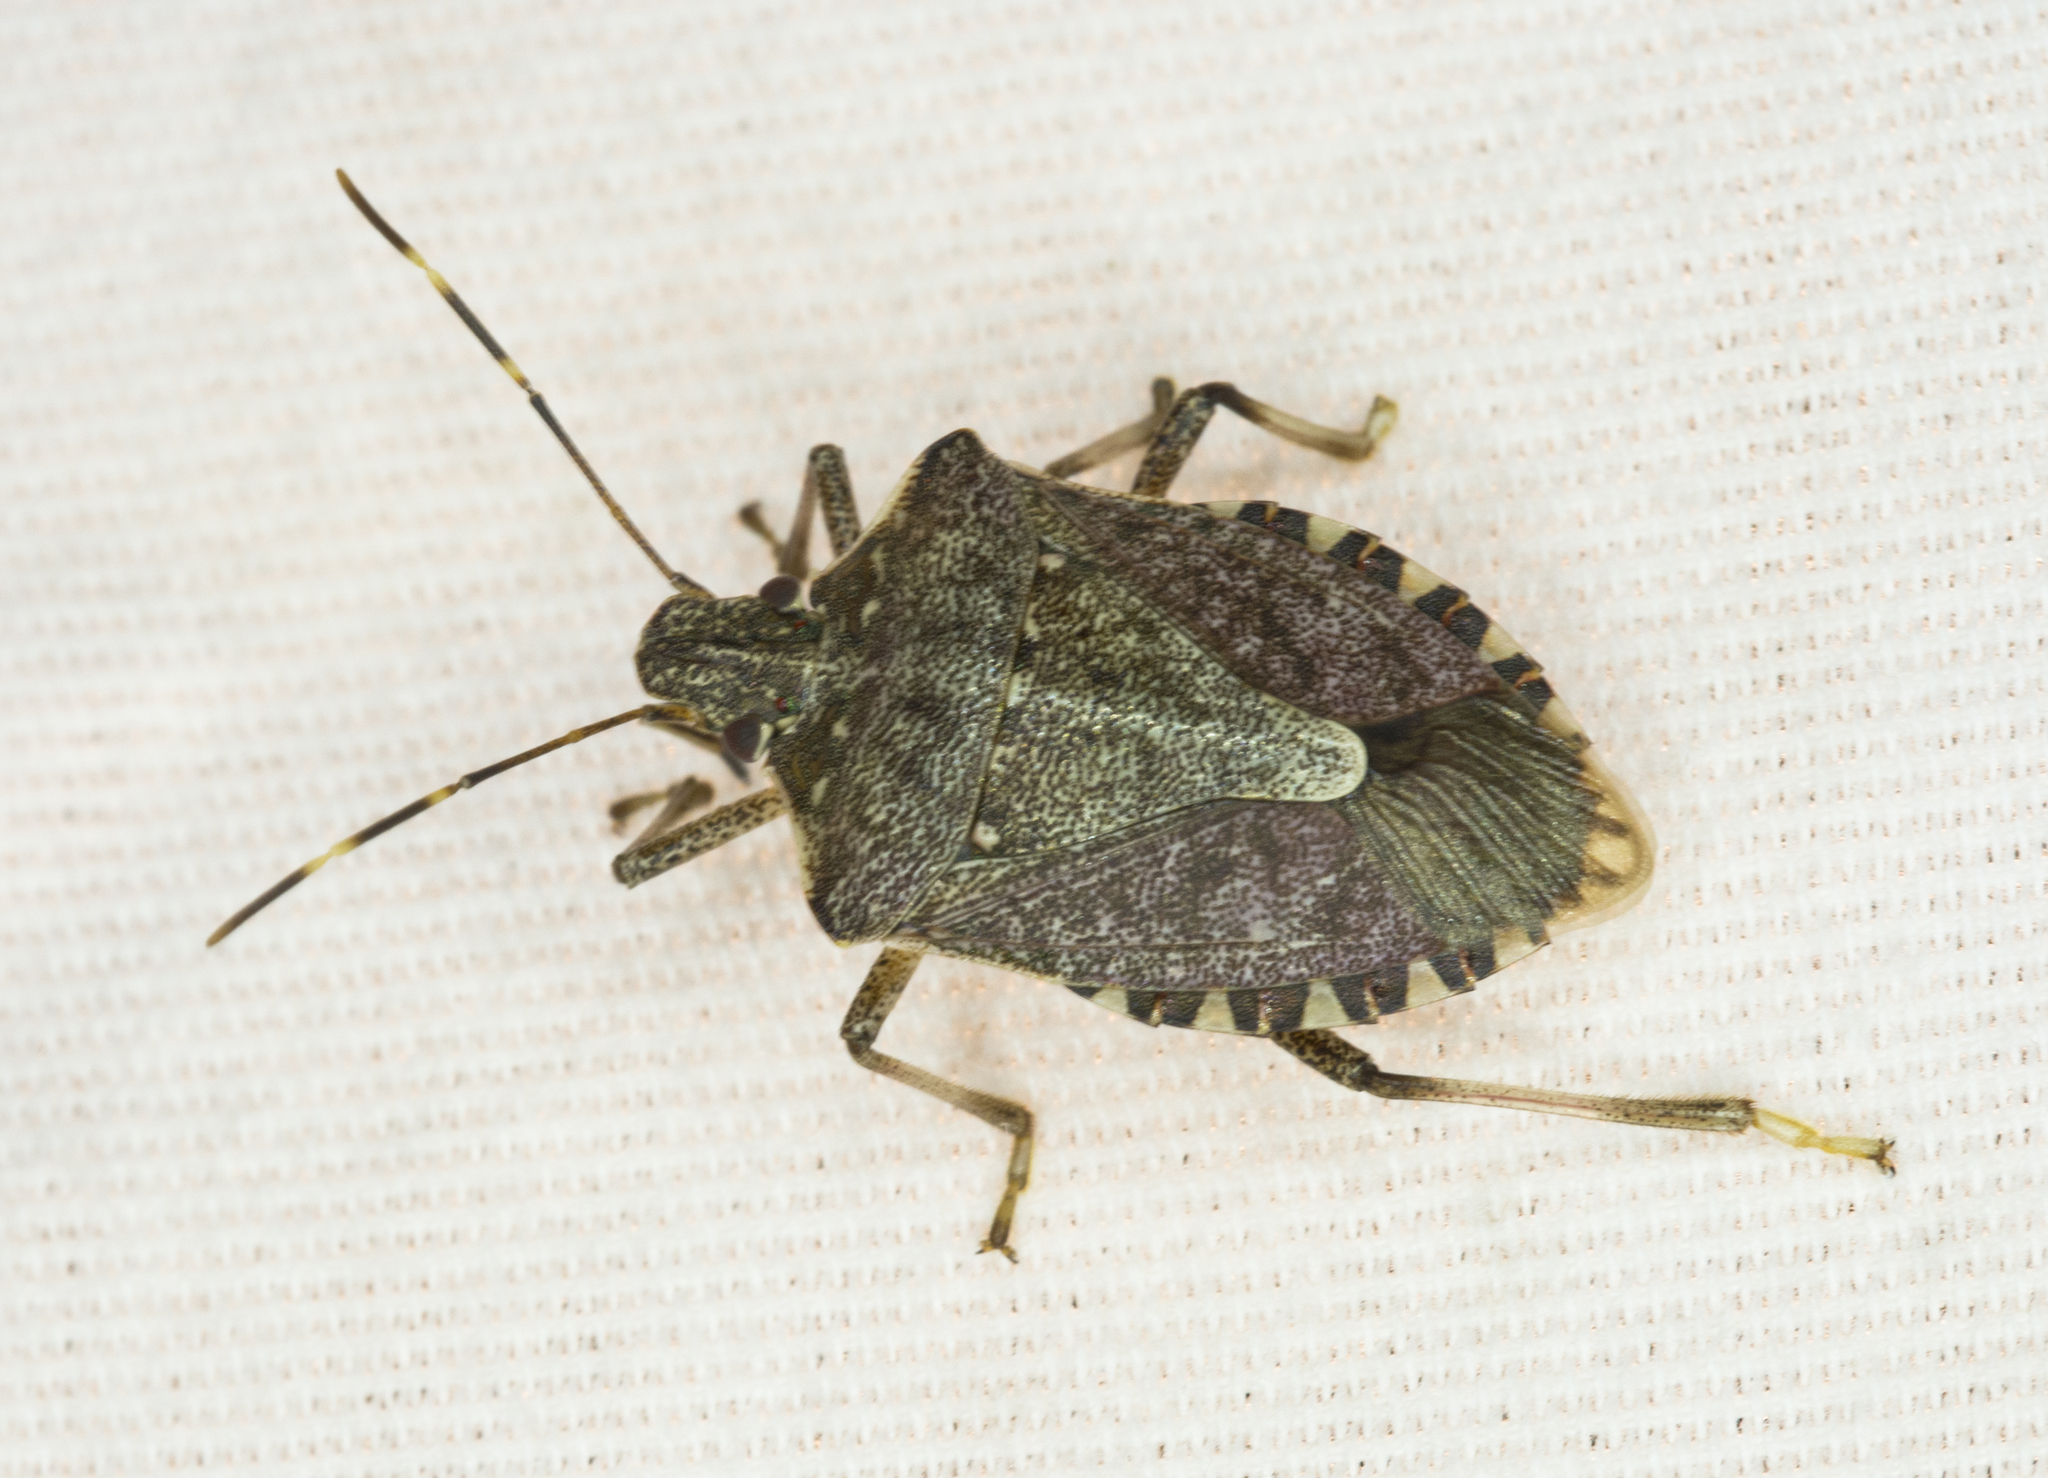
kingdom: Animalia
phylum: Arthropoda
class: Insecta
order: Hemiptera
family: Pentatomidae
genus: Halyomorpha
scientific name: Halyomorpha halys
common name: Brown marmorated stink bug
